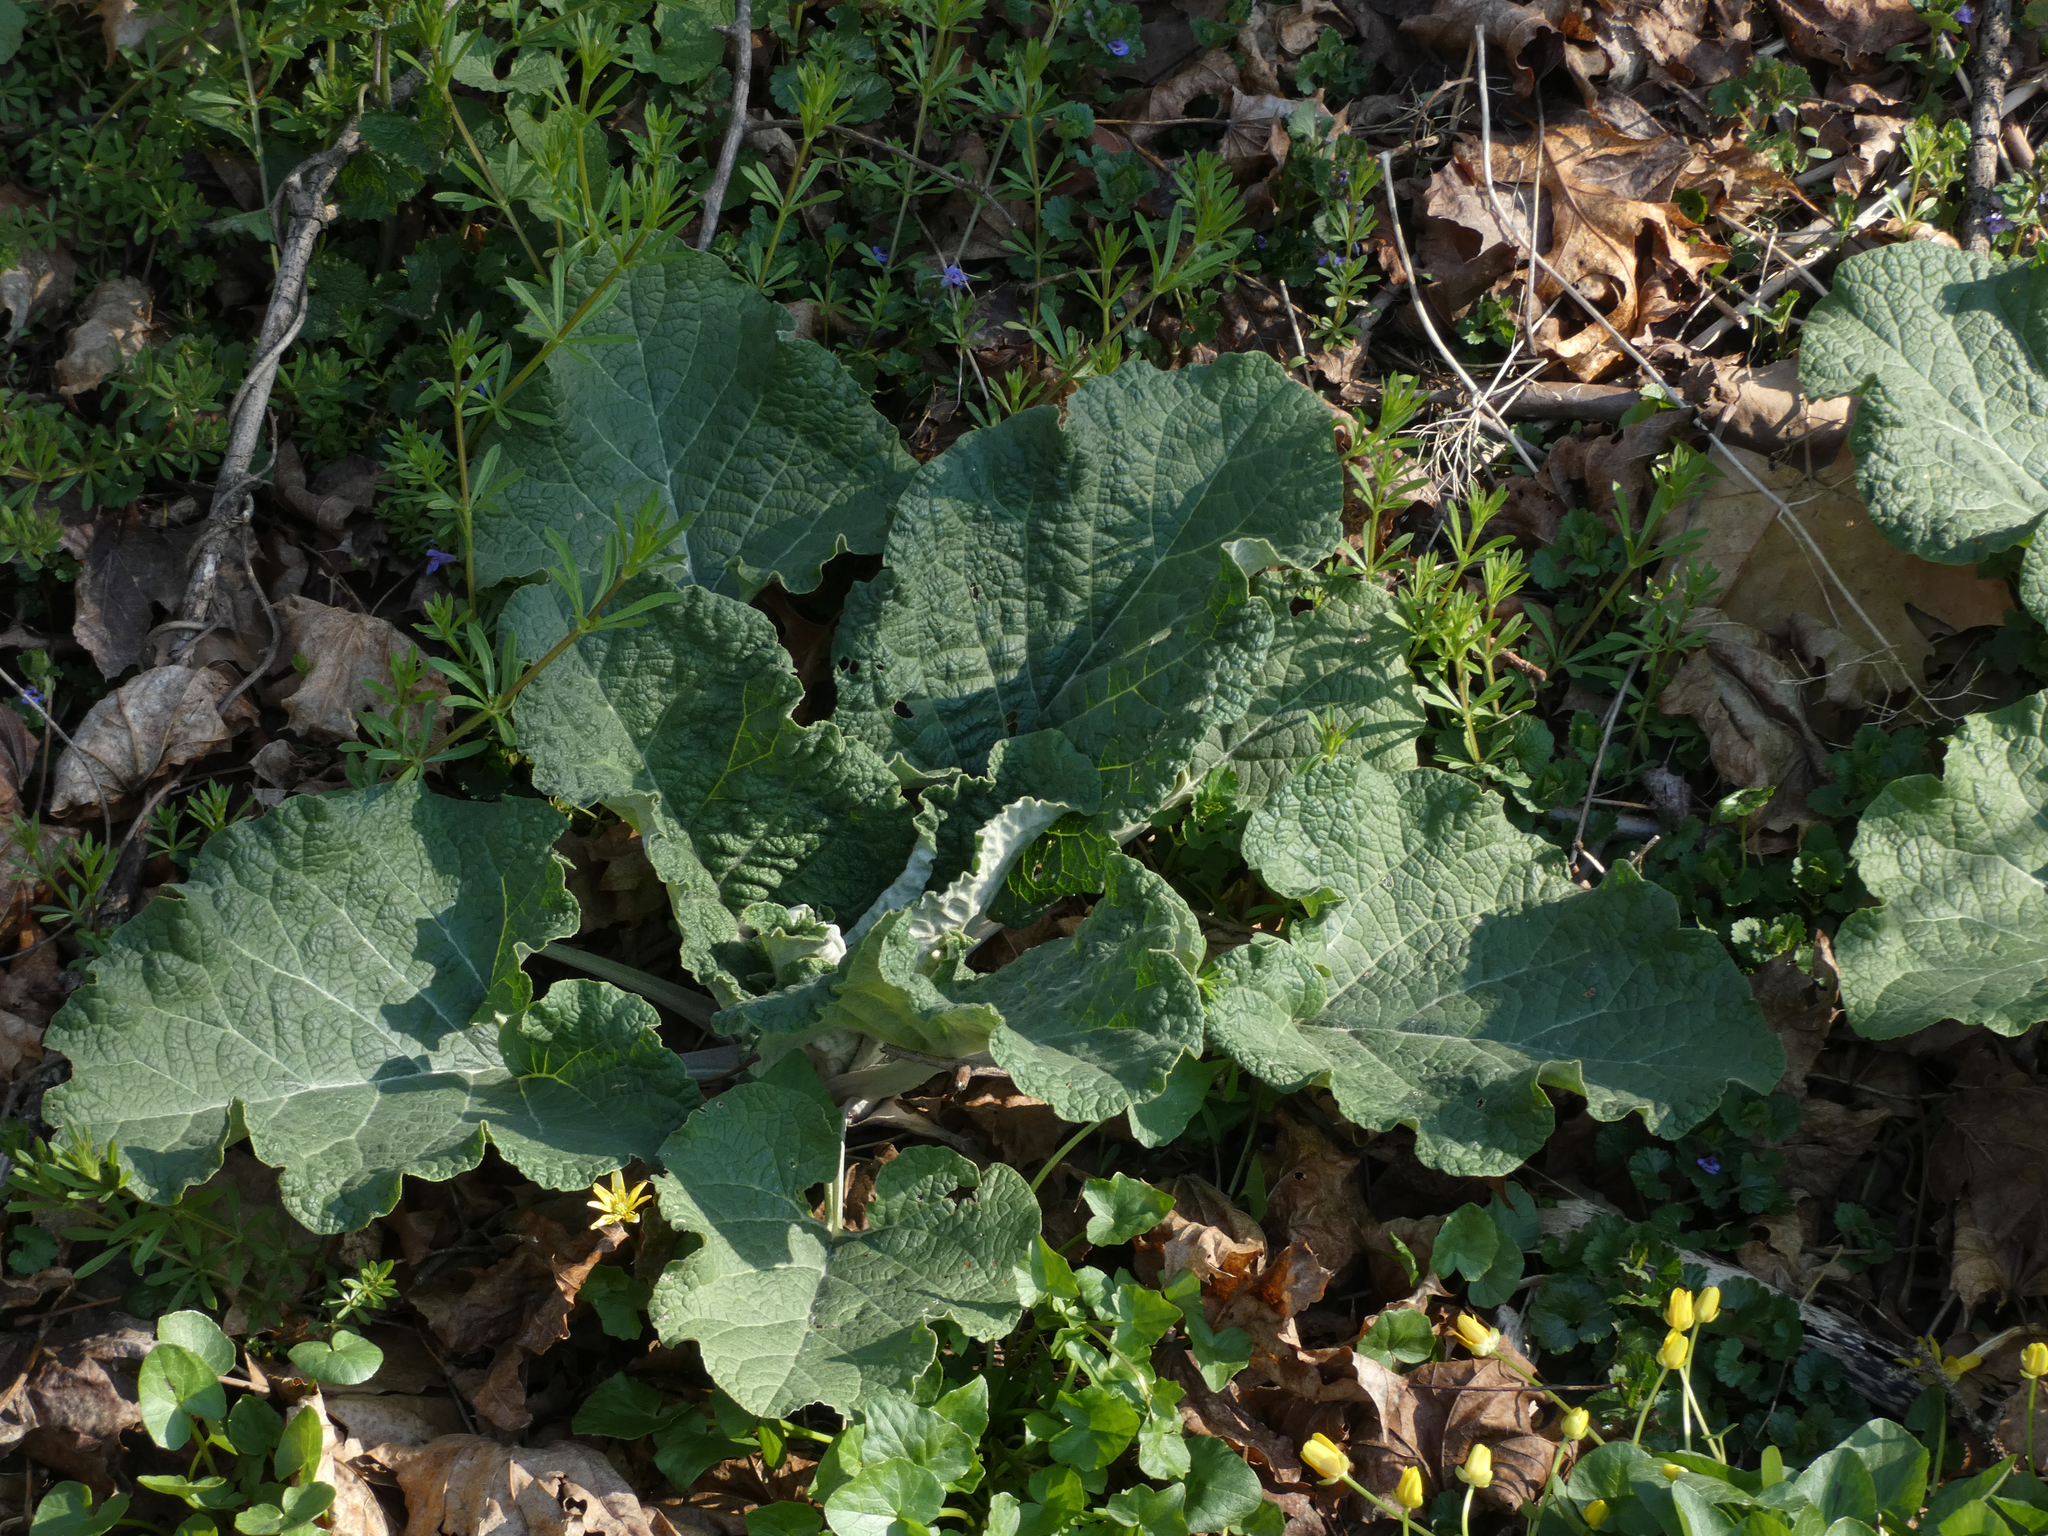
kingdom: Plantae
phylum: Tracheophyta
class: Magnoliopsida
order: Asterales
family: Asteraceae
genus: Arctium
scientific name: Arctium
